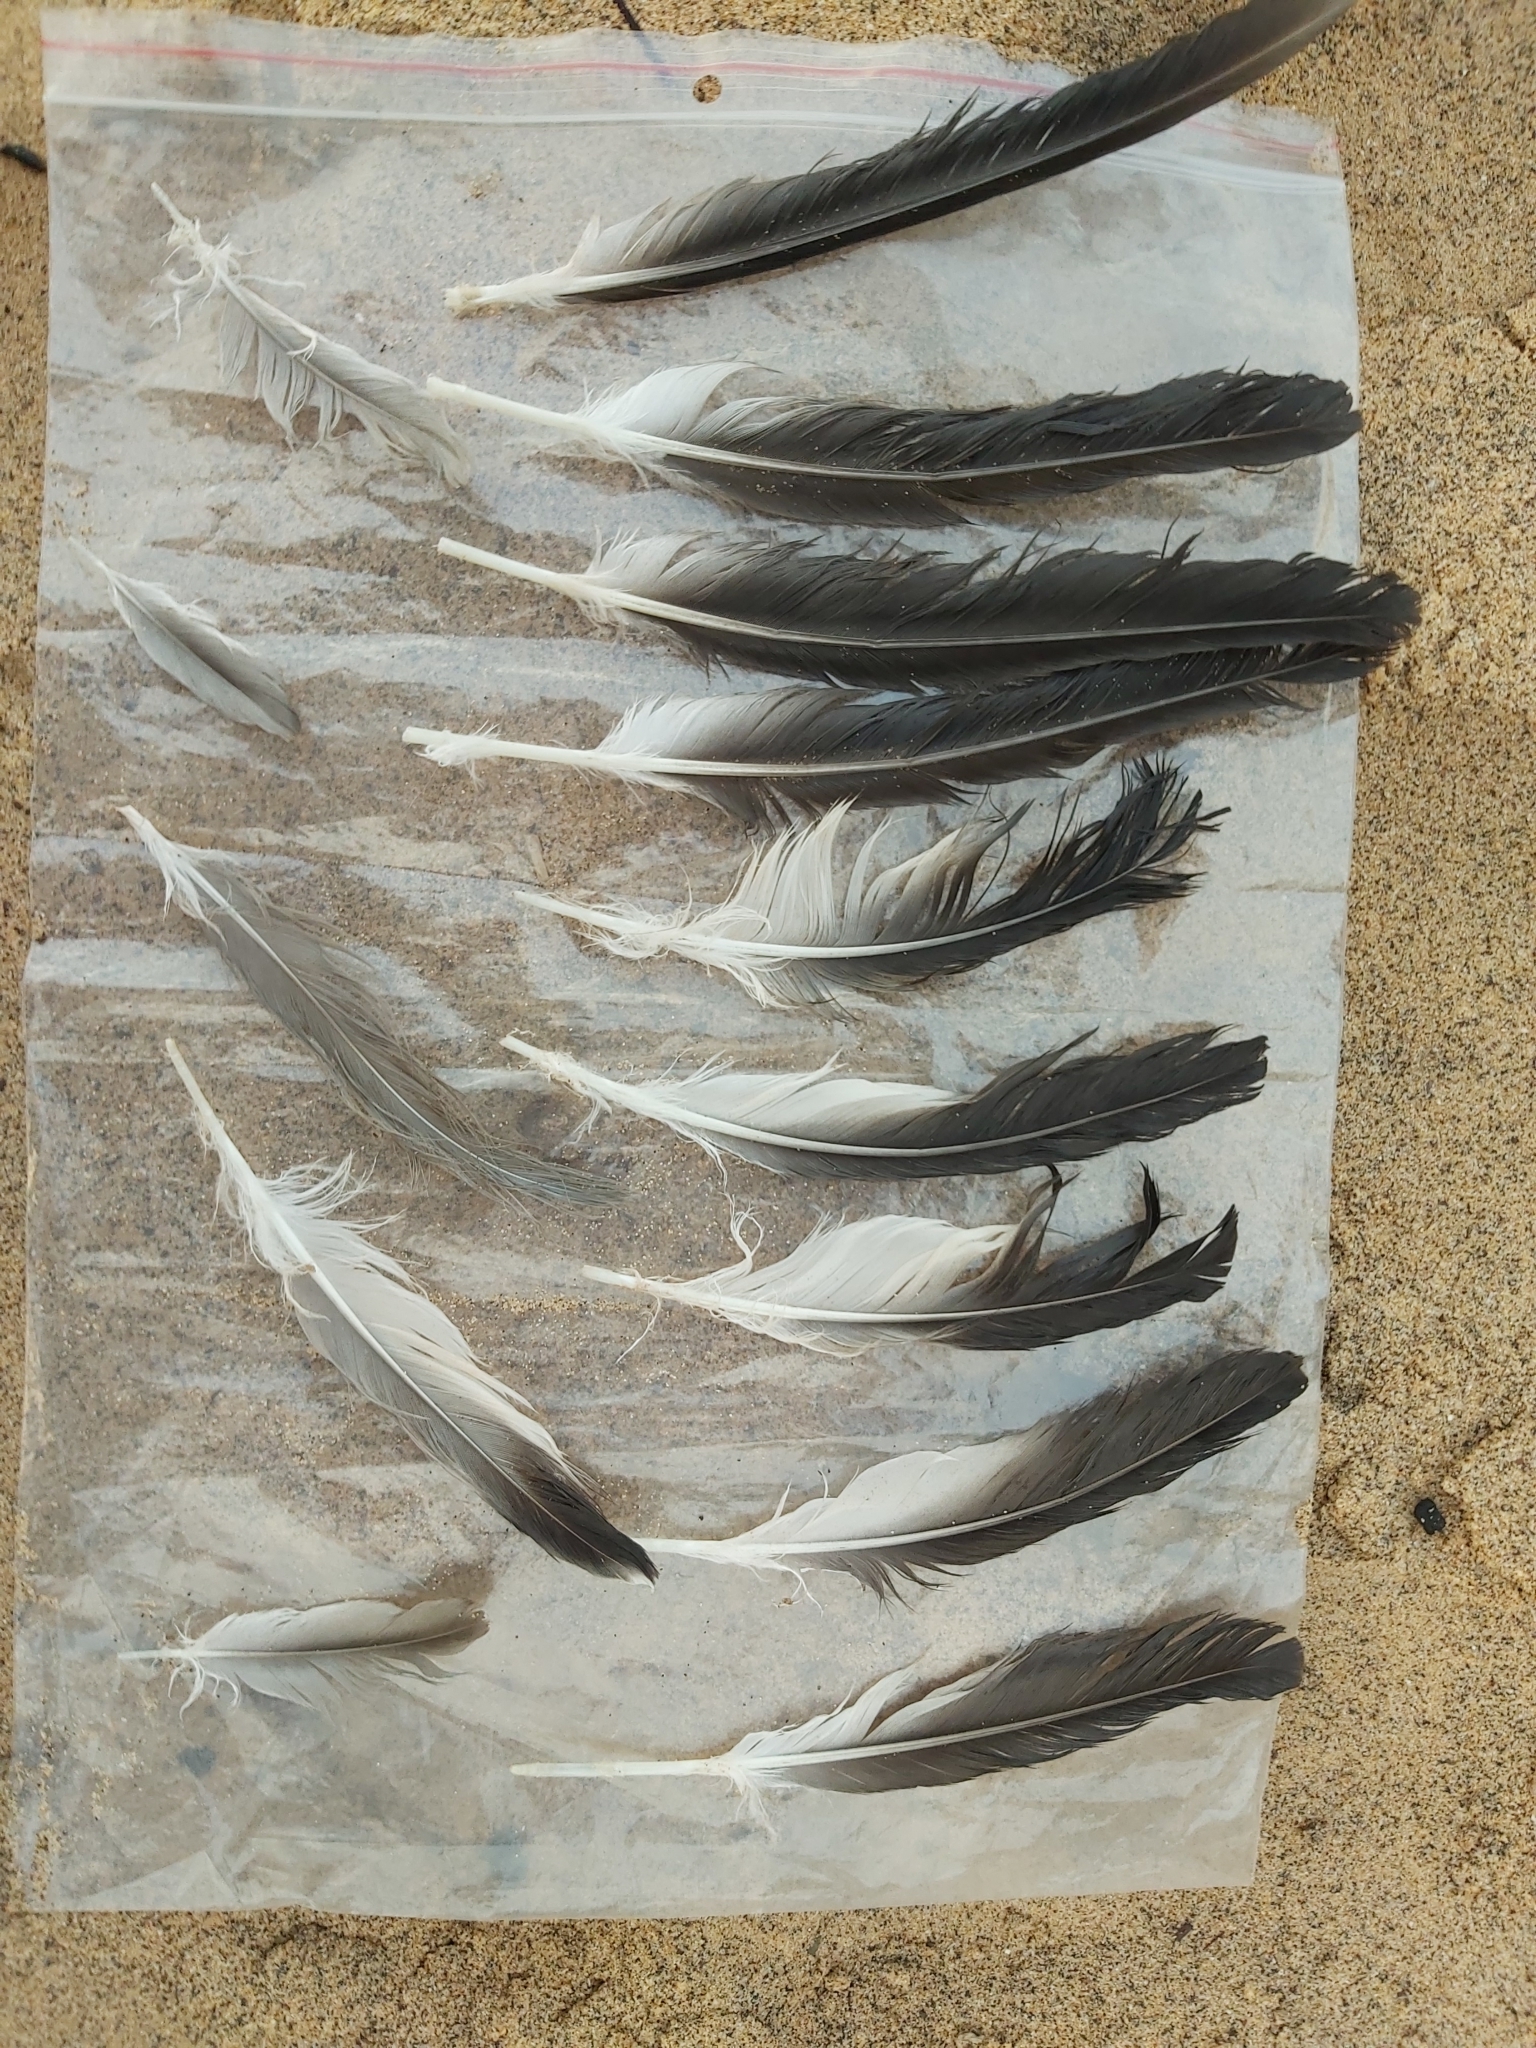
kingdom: Animalia
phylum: Chordata
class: Aves
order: Charadriiformes
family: Charadriidae
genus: Vanellus
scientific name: Vanellus miles
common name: Masked lapwing
